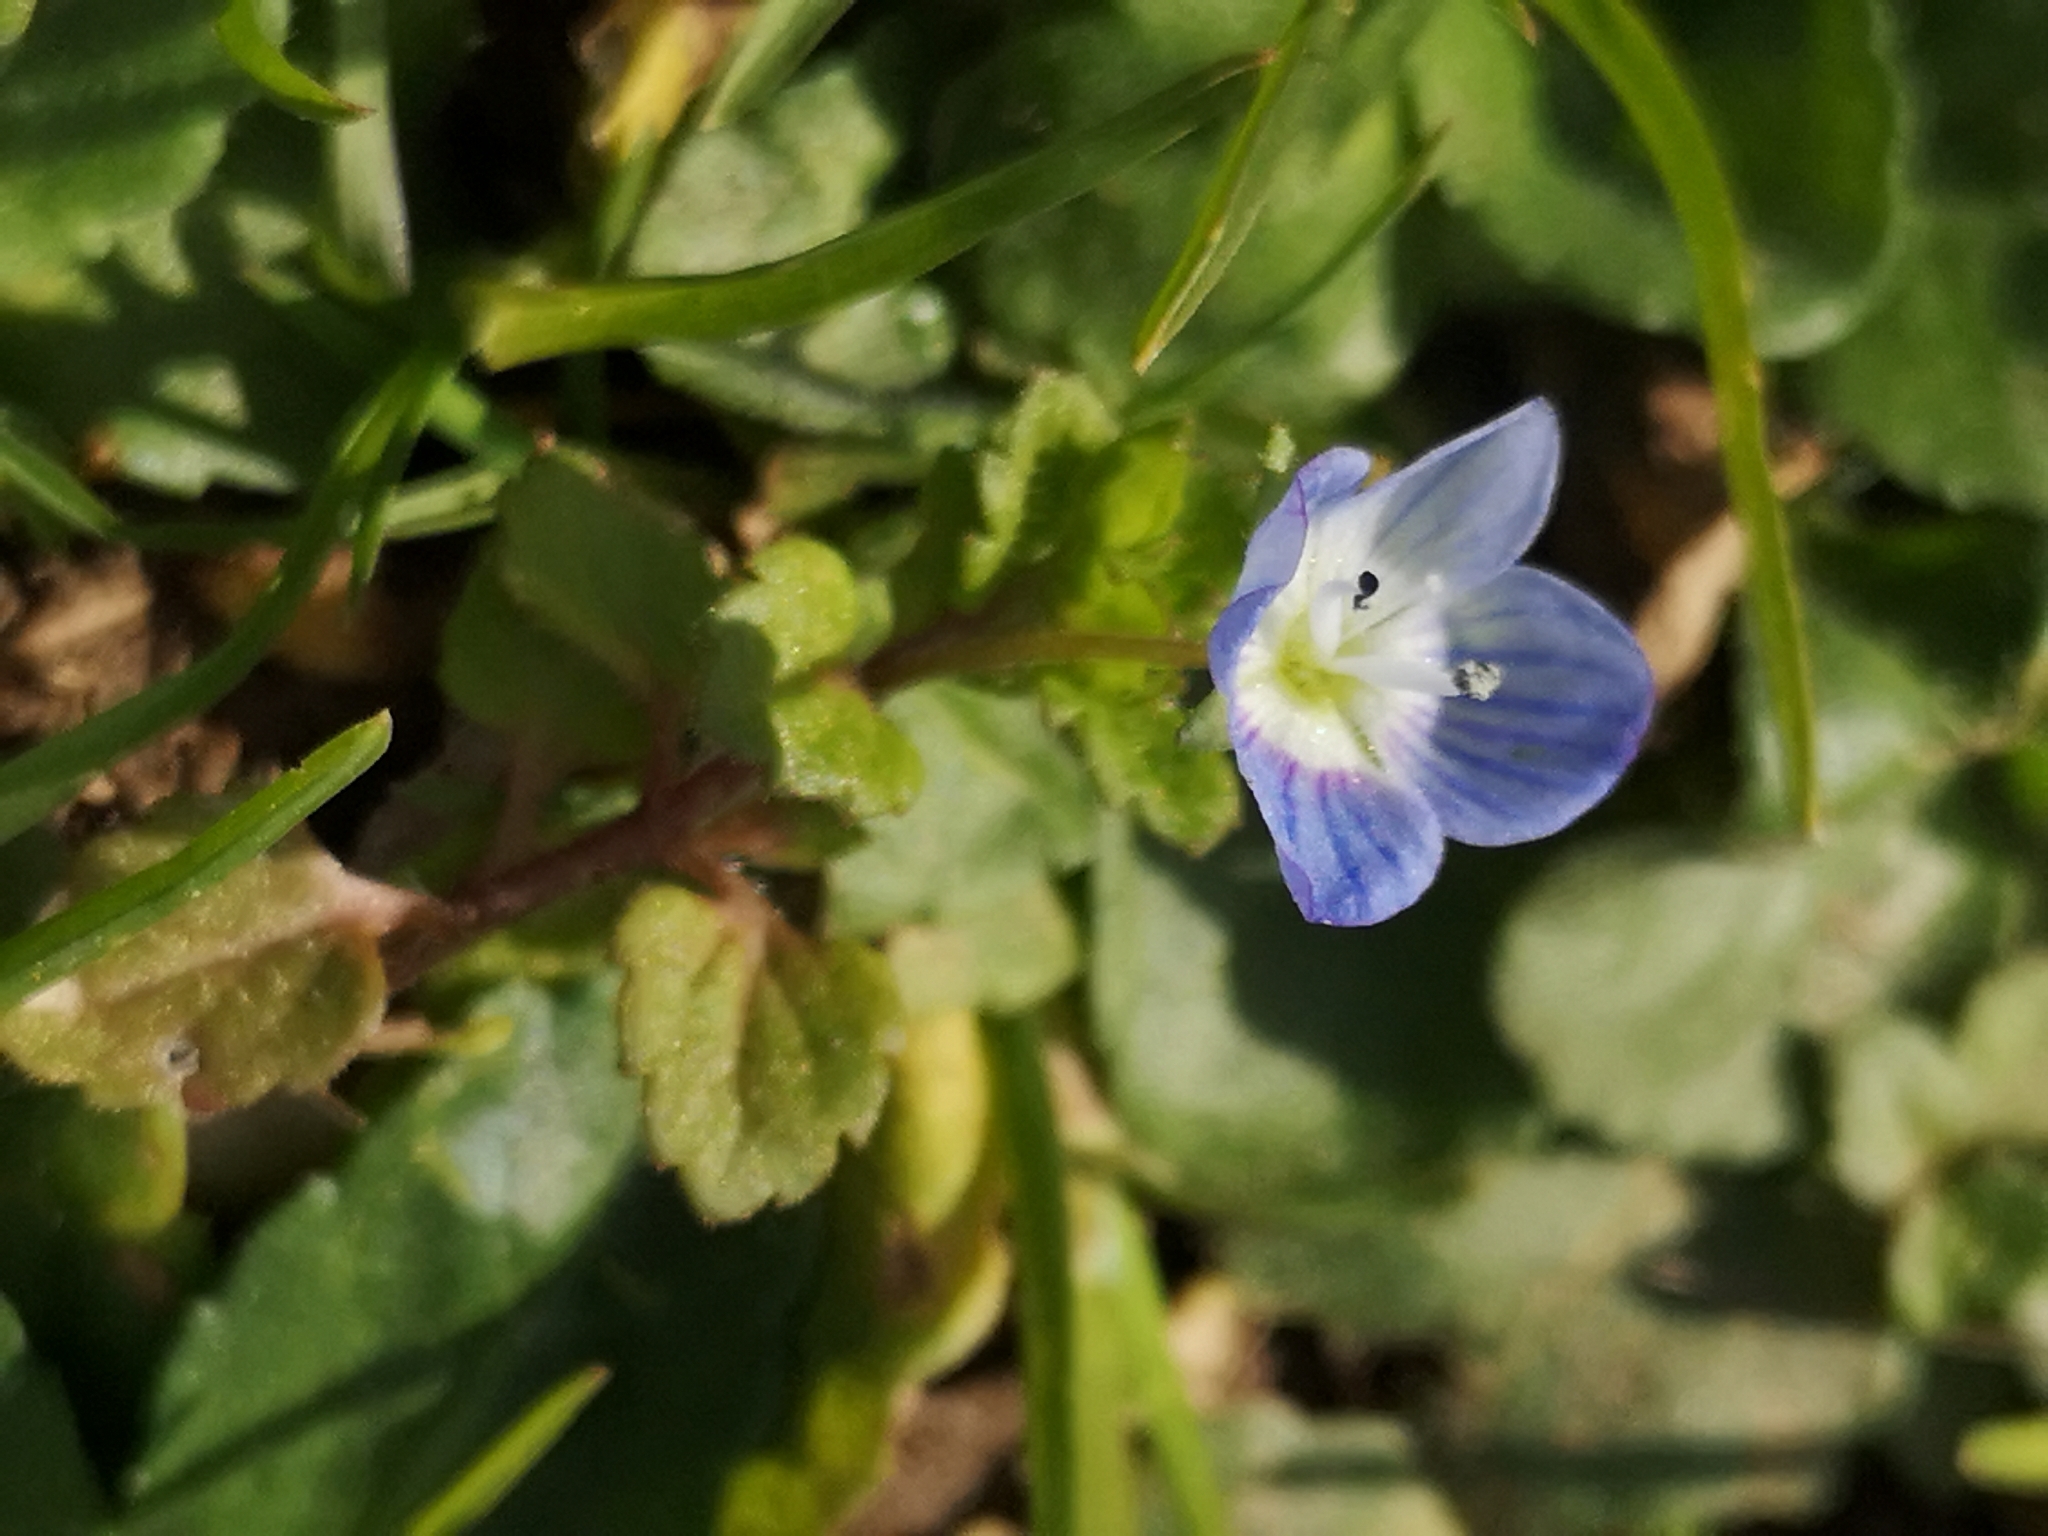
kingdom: Plantae
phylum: Tracheophyta
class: Magnoliopsida
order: Lamiales
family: Plantaginaceae
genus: Veronica
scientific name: Veronica persica
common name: Common field-speedwell
